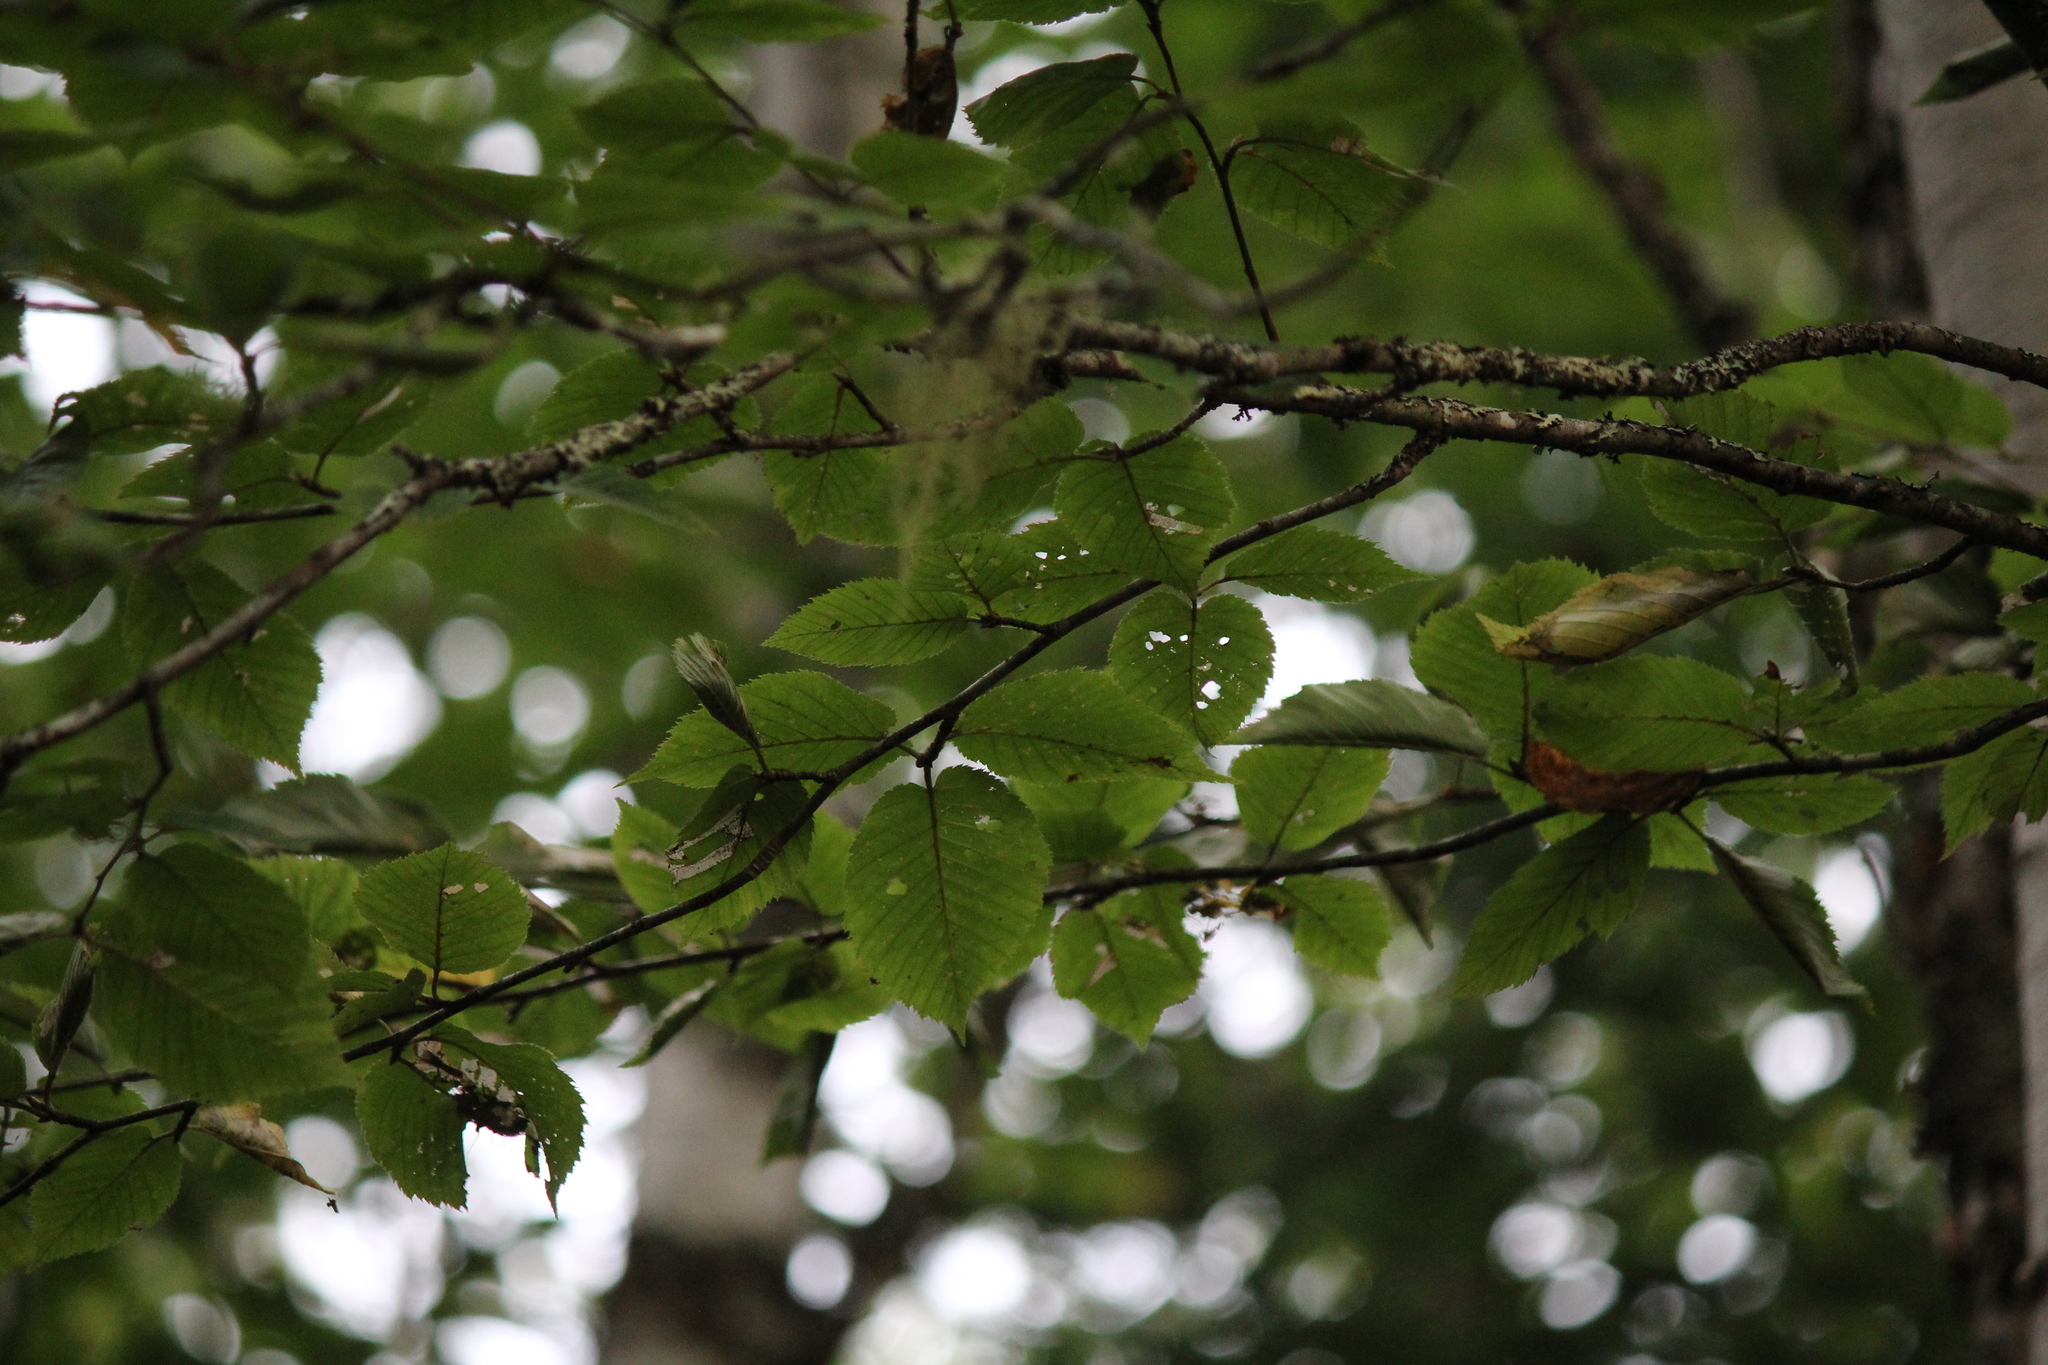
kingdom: Plantae
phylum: Tracheophyta
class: Magnoliopsida
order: Fagales
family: Betulaceae
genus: Betula
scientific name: Betula papyrifera
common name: Paper birch
